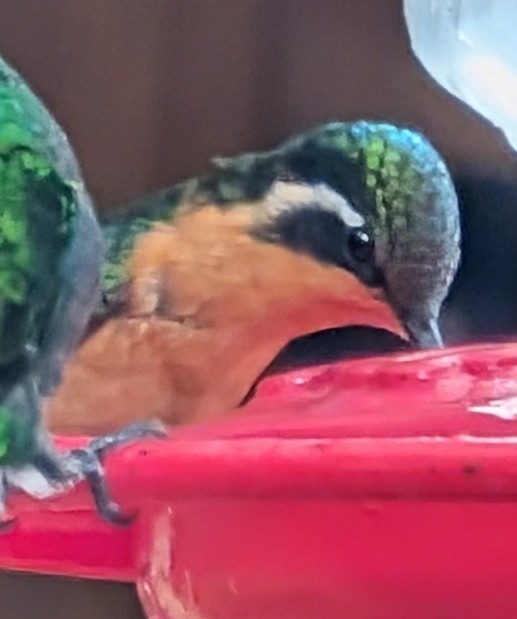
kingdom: Animalia
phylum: Chordata
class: Aves
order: Apodiformes
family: Trochilidae
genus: Lampornis
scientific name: Lampornis calolaemus
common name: Purple-throated mountain-gem
